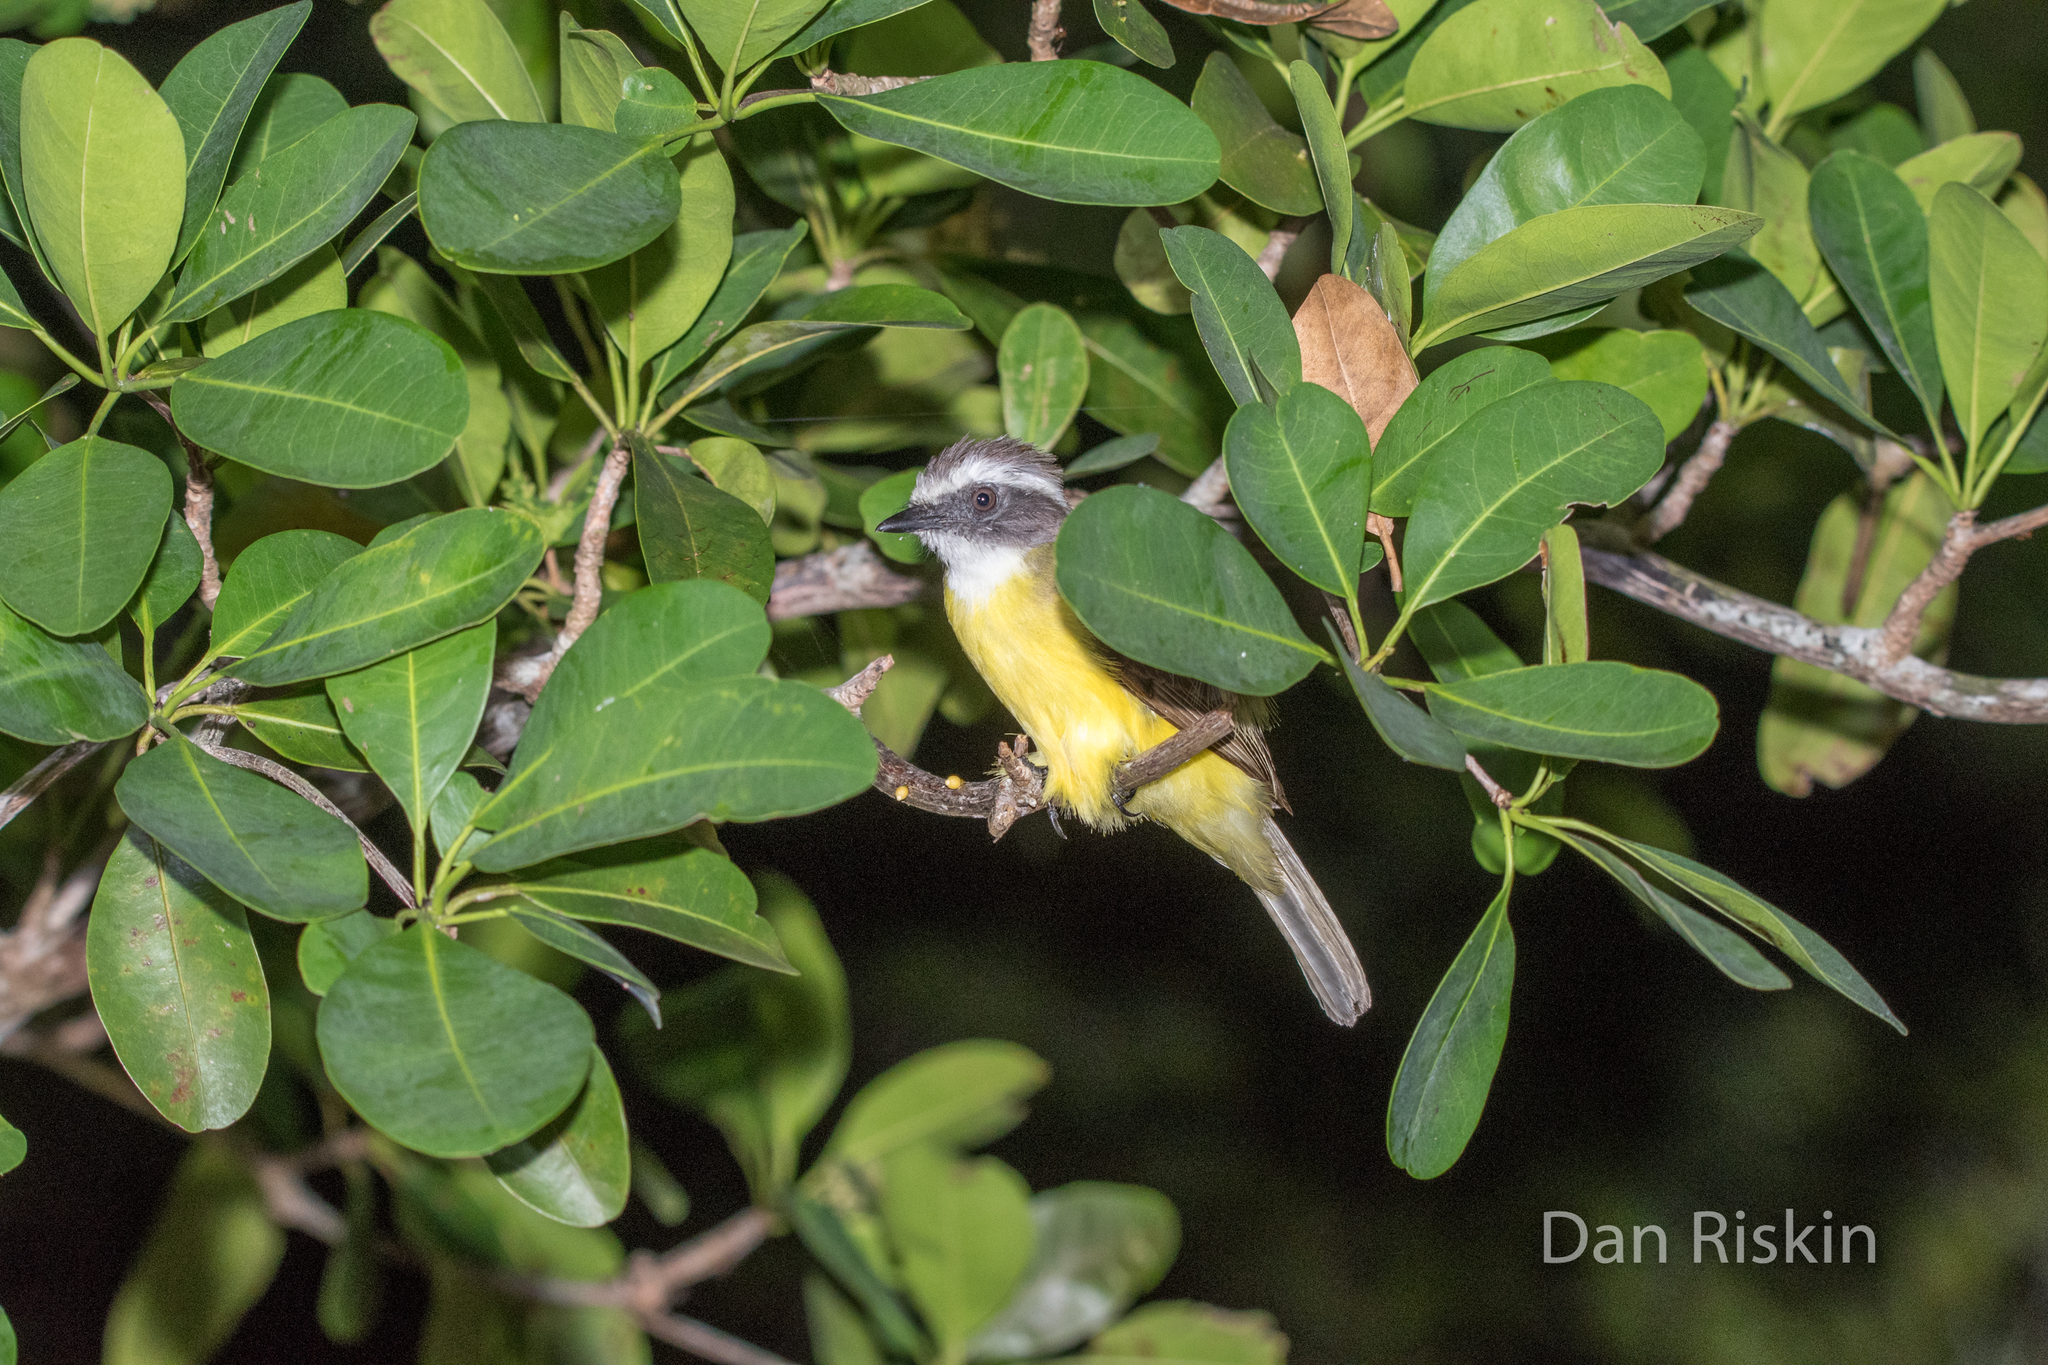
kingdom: Animalia
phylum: Chordata
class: Aves
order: Passeriformes
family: Tyrannidae
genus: Myiozetetes
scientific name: Myiozetetes similis
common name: Social flycatcher
